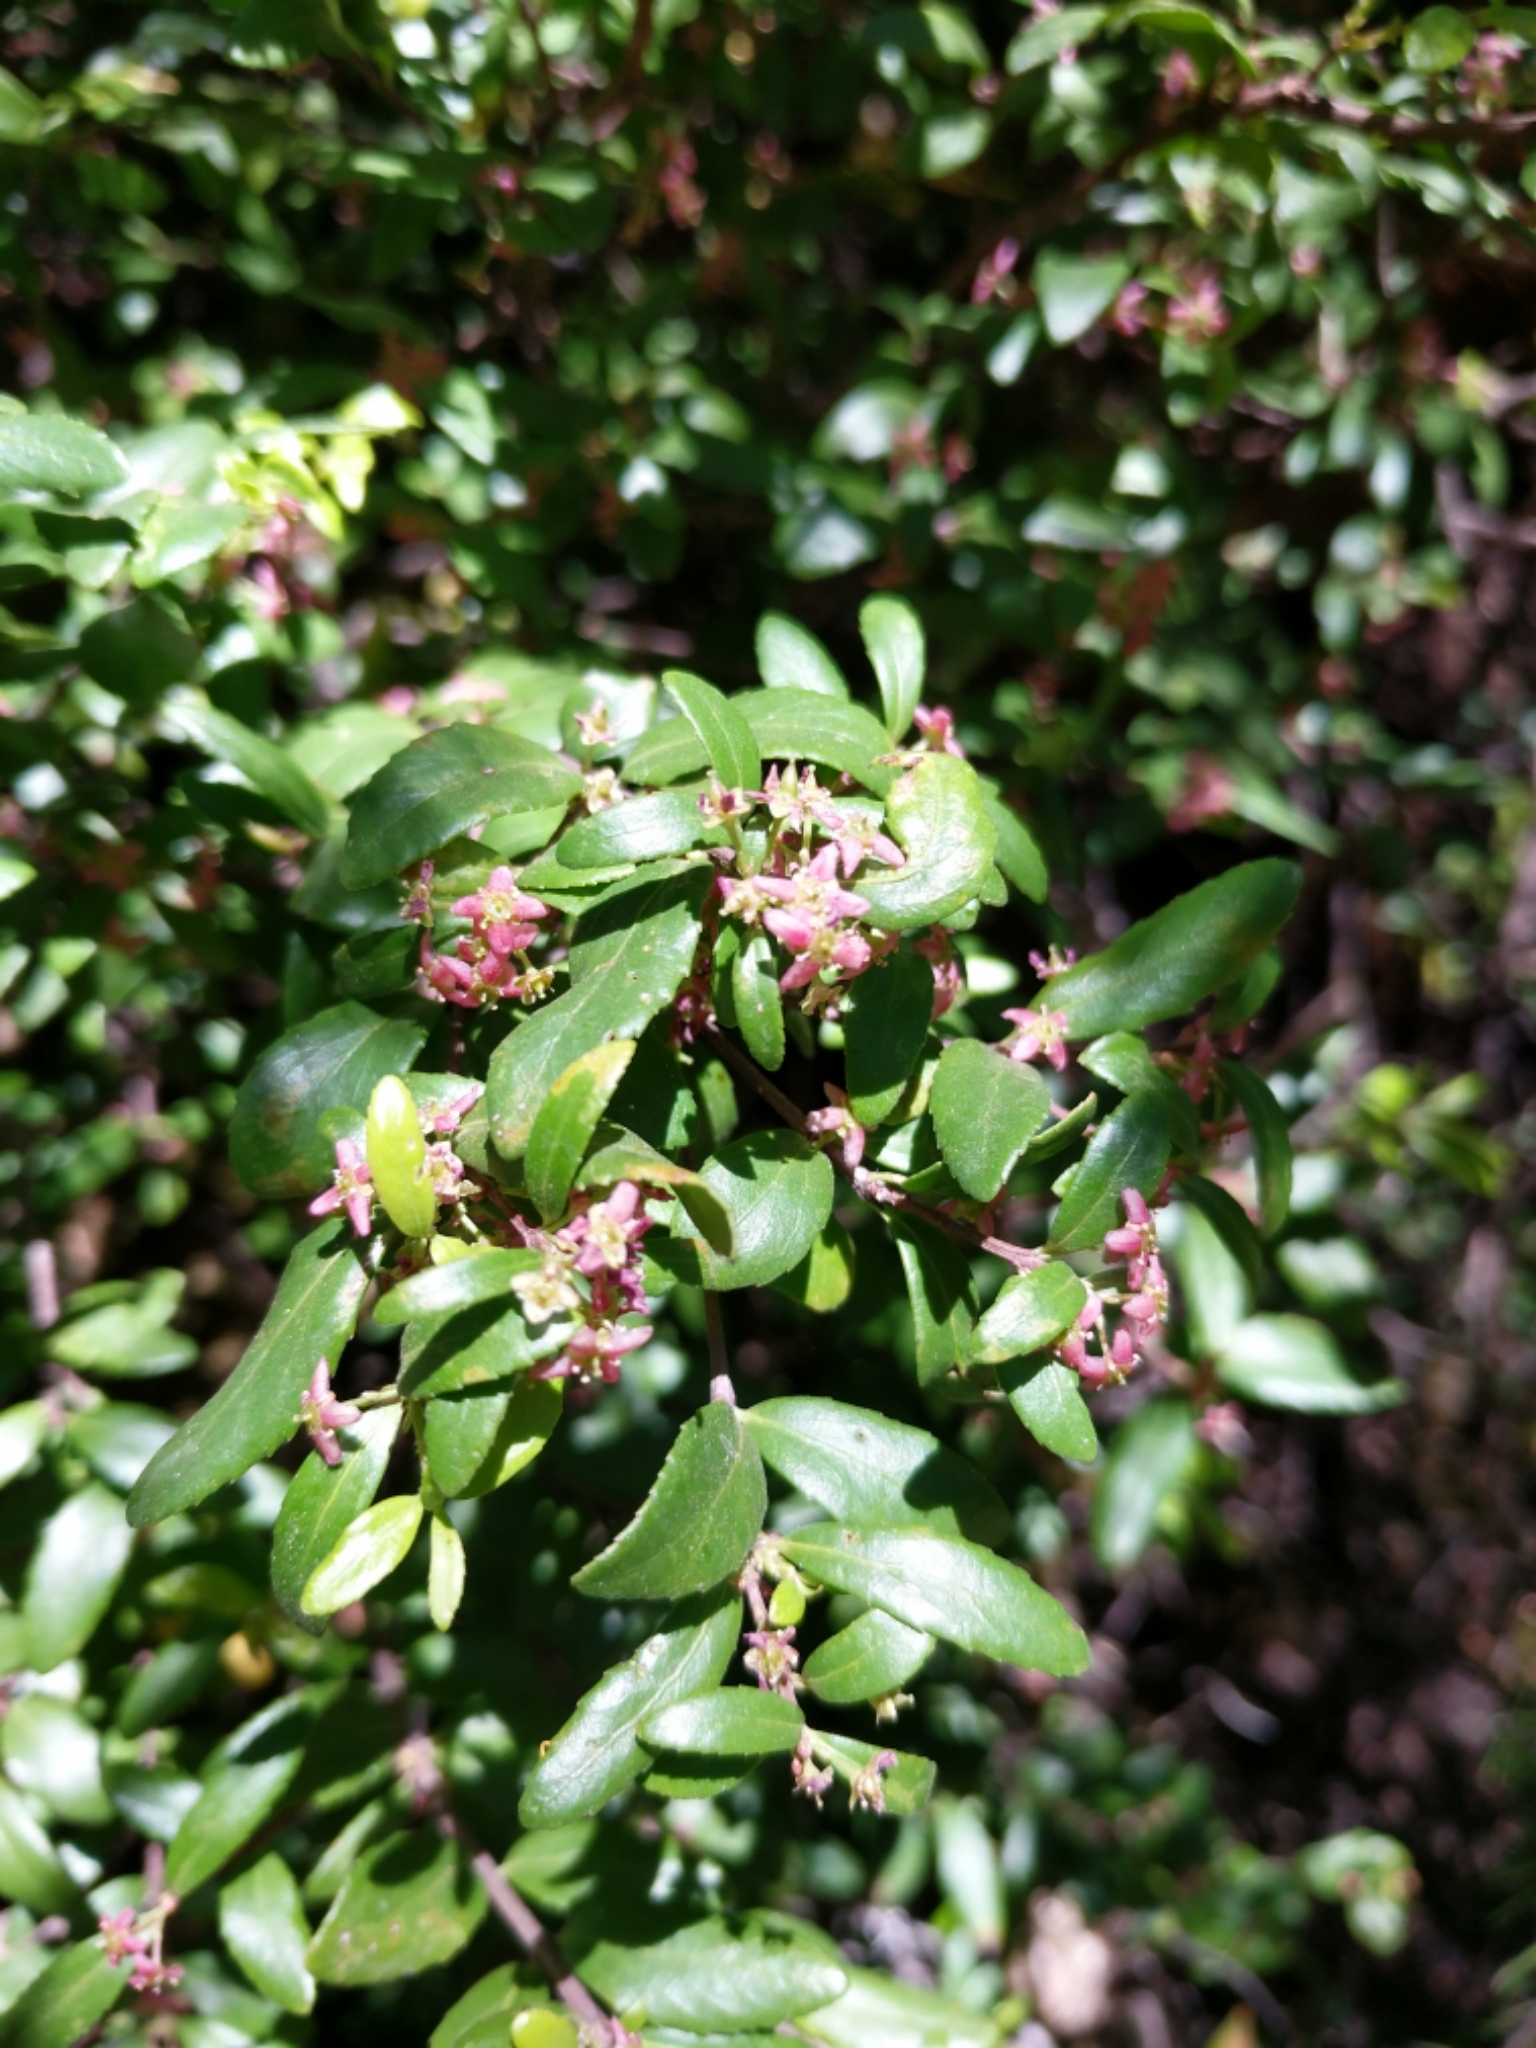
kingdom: Plantae
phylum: Tracheophyta
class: Magnoliopsida
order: Celastrales
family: Celastraceae
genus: Paxistima
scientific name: Paxistima myrsinites
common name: Mountain-lover
